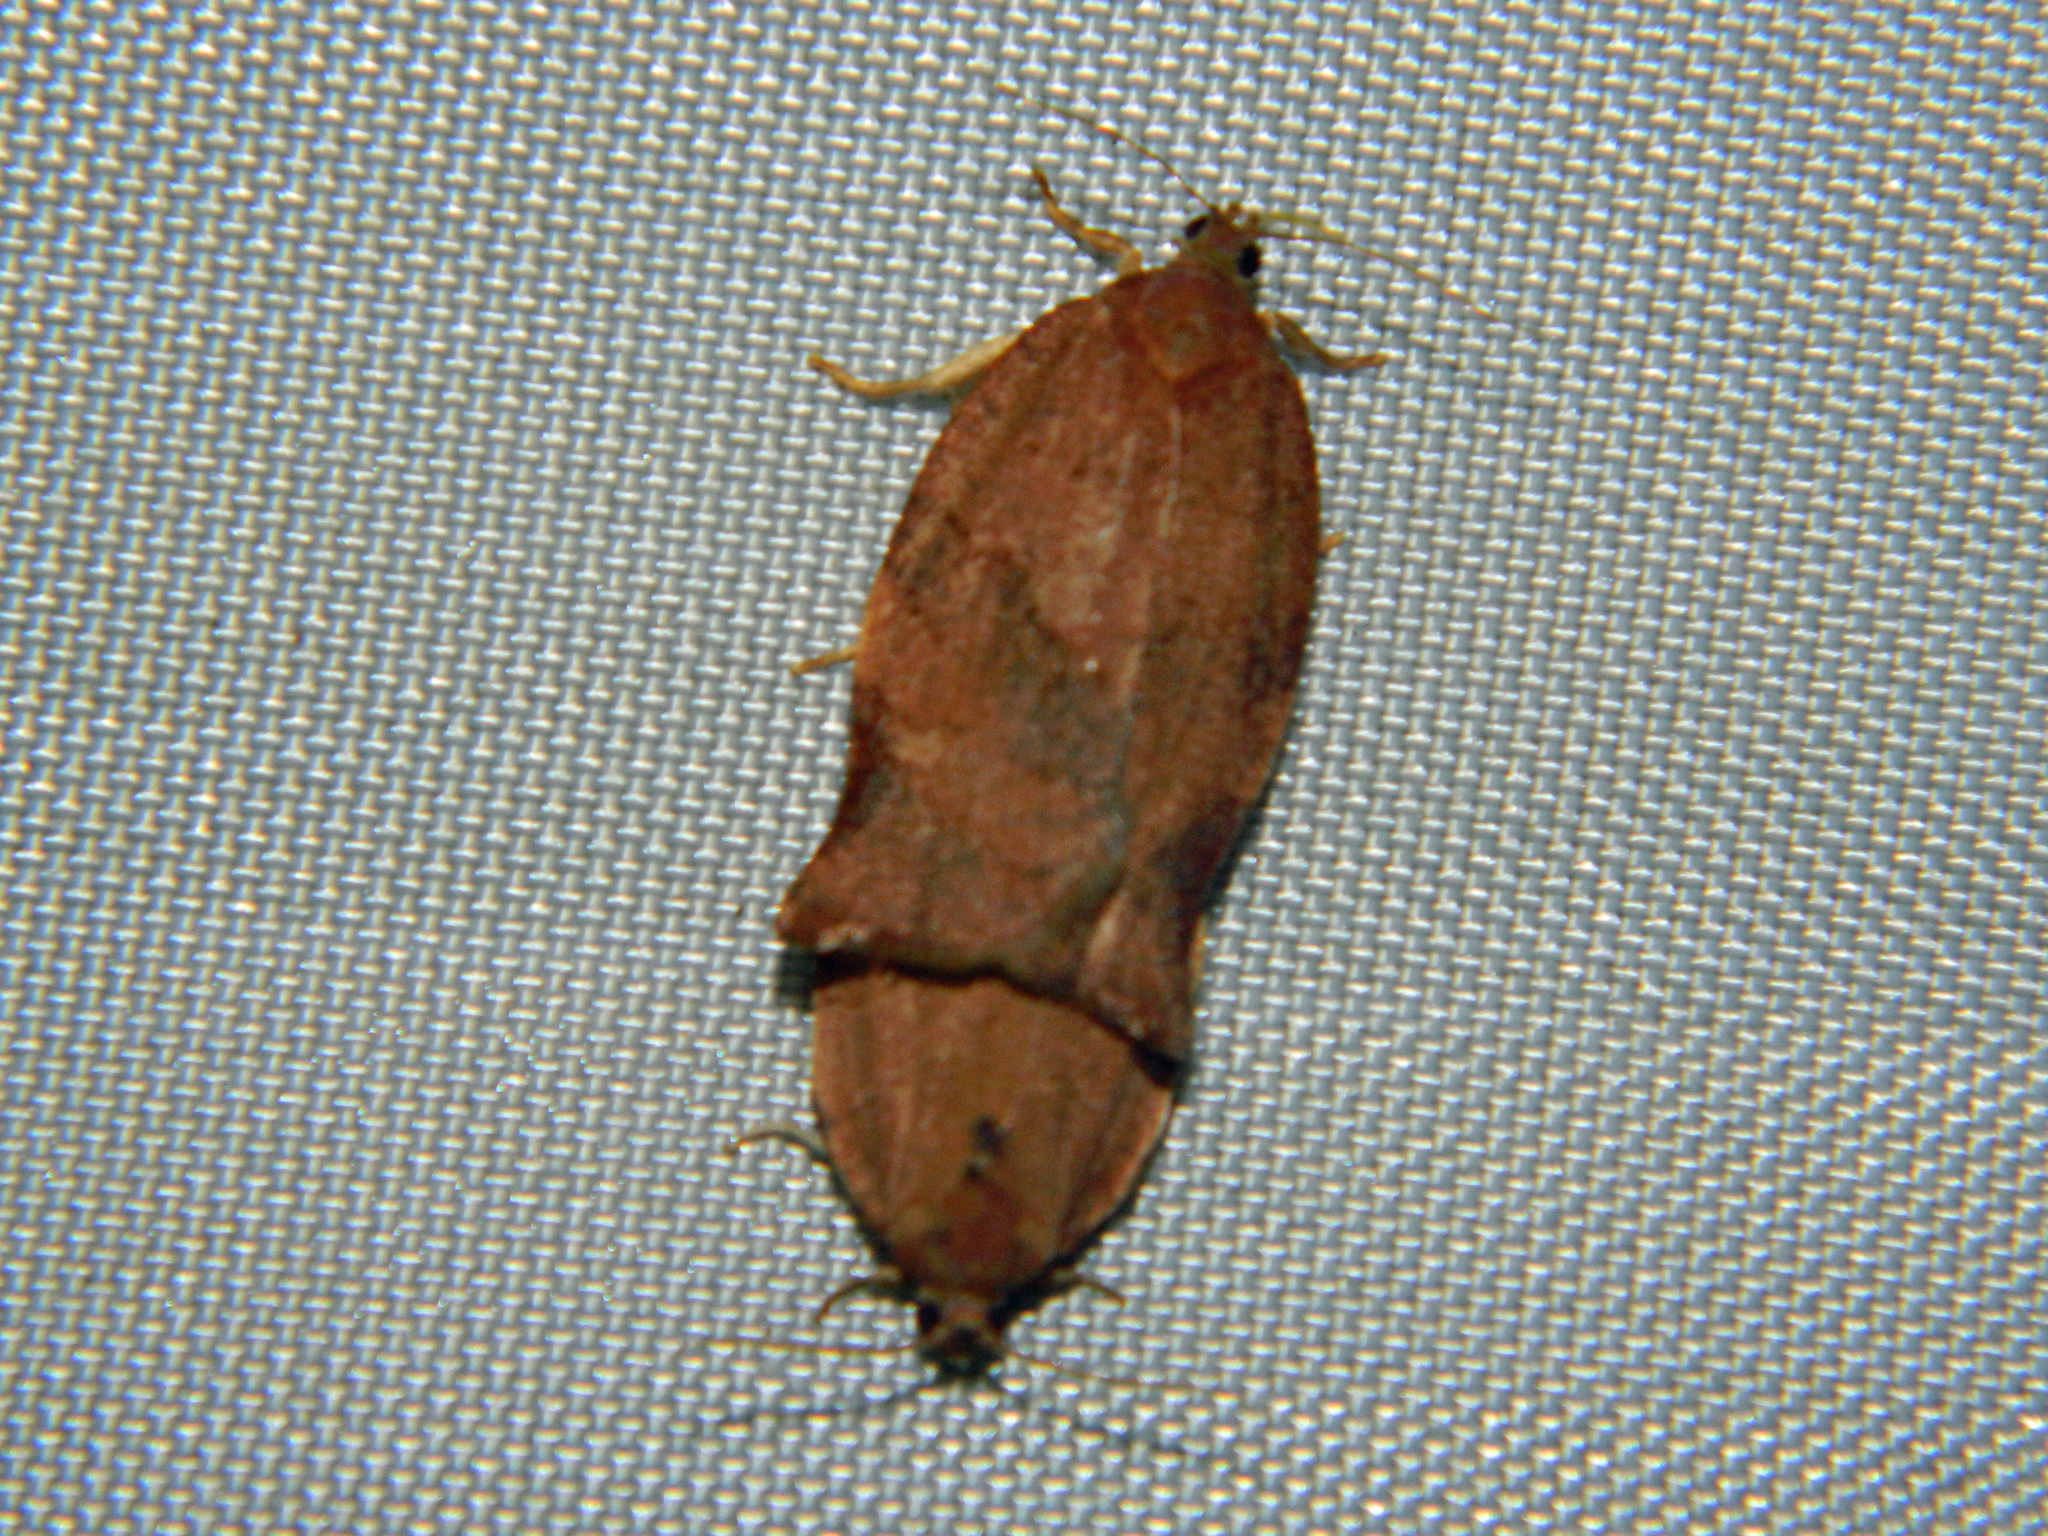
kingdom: Animalia
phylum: Arthropoda
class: Insecta
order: Lepidoptera
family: Tortricidae
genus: Choristoneura
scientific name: Choristoneura rosaceana
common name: Oblique-banded leafroller moth
